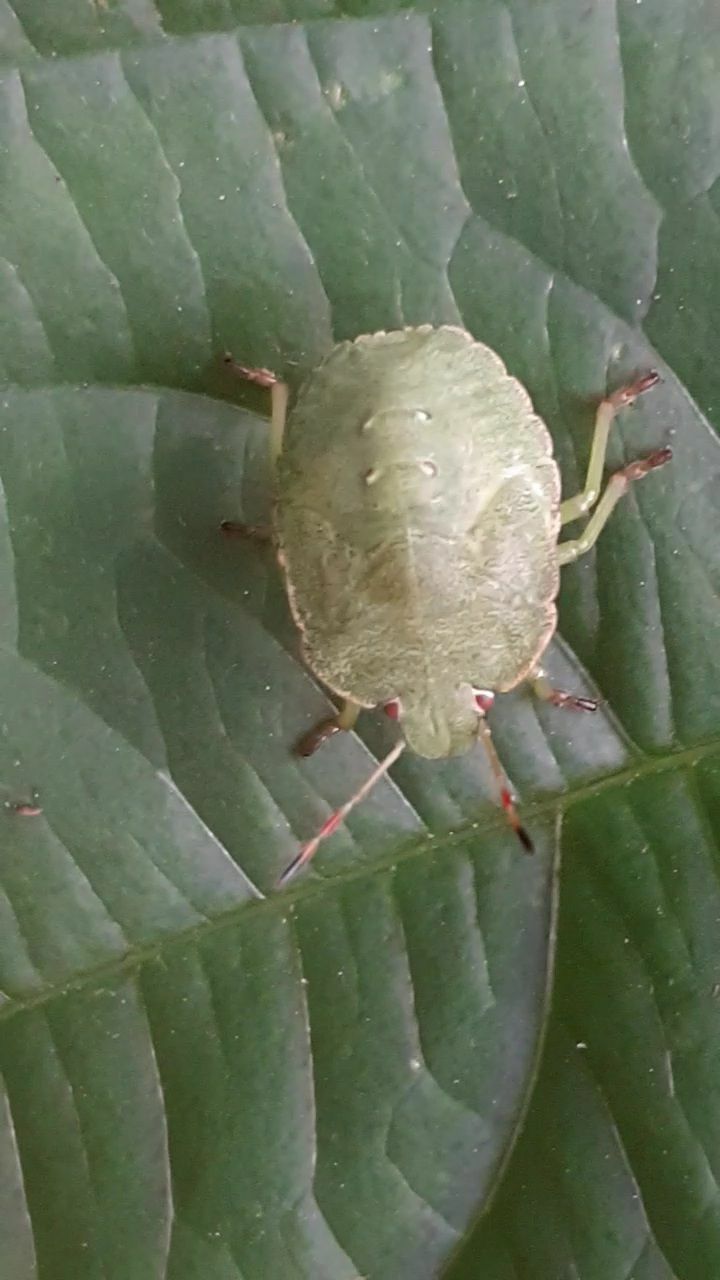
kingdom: Animalia
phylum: Arthropoda
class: Insecta
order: Hemiptera
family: Pentatomidae
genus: Palomena
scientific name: Palomena prasina
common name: Green shieldbug
